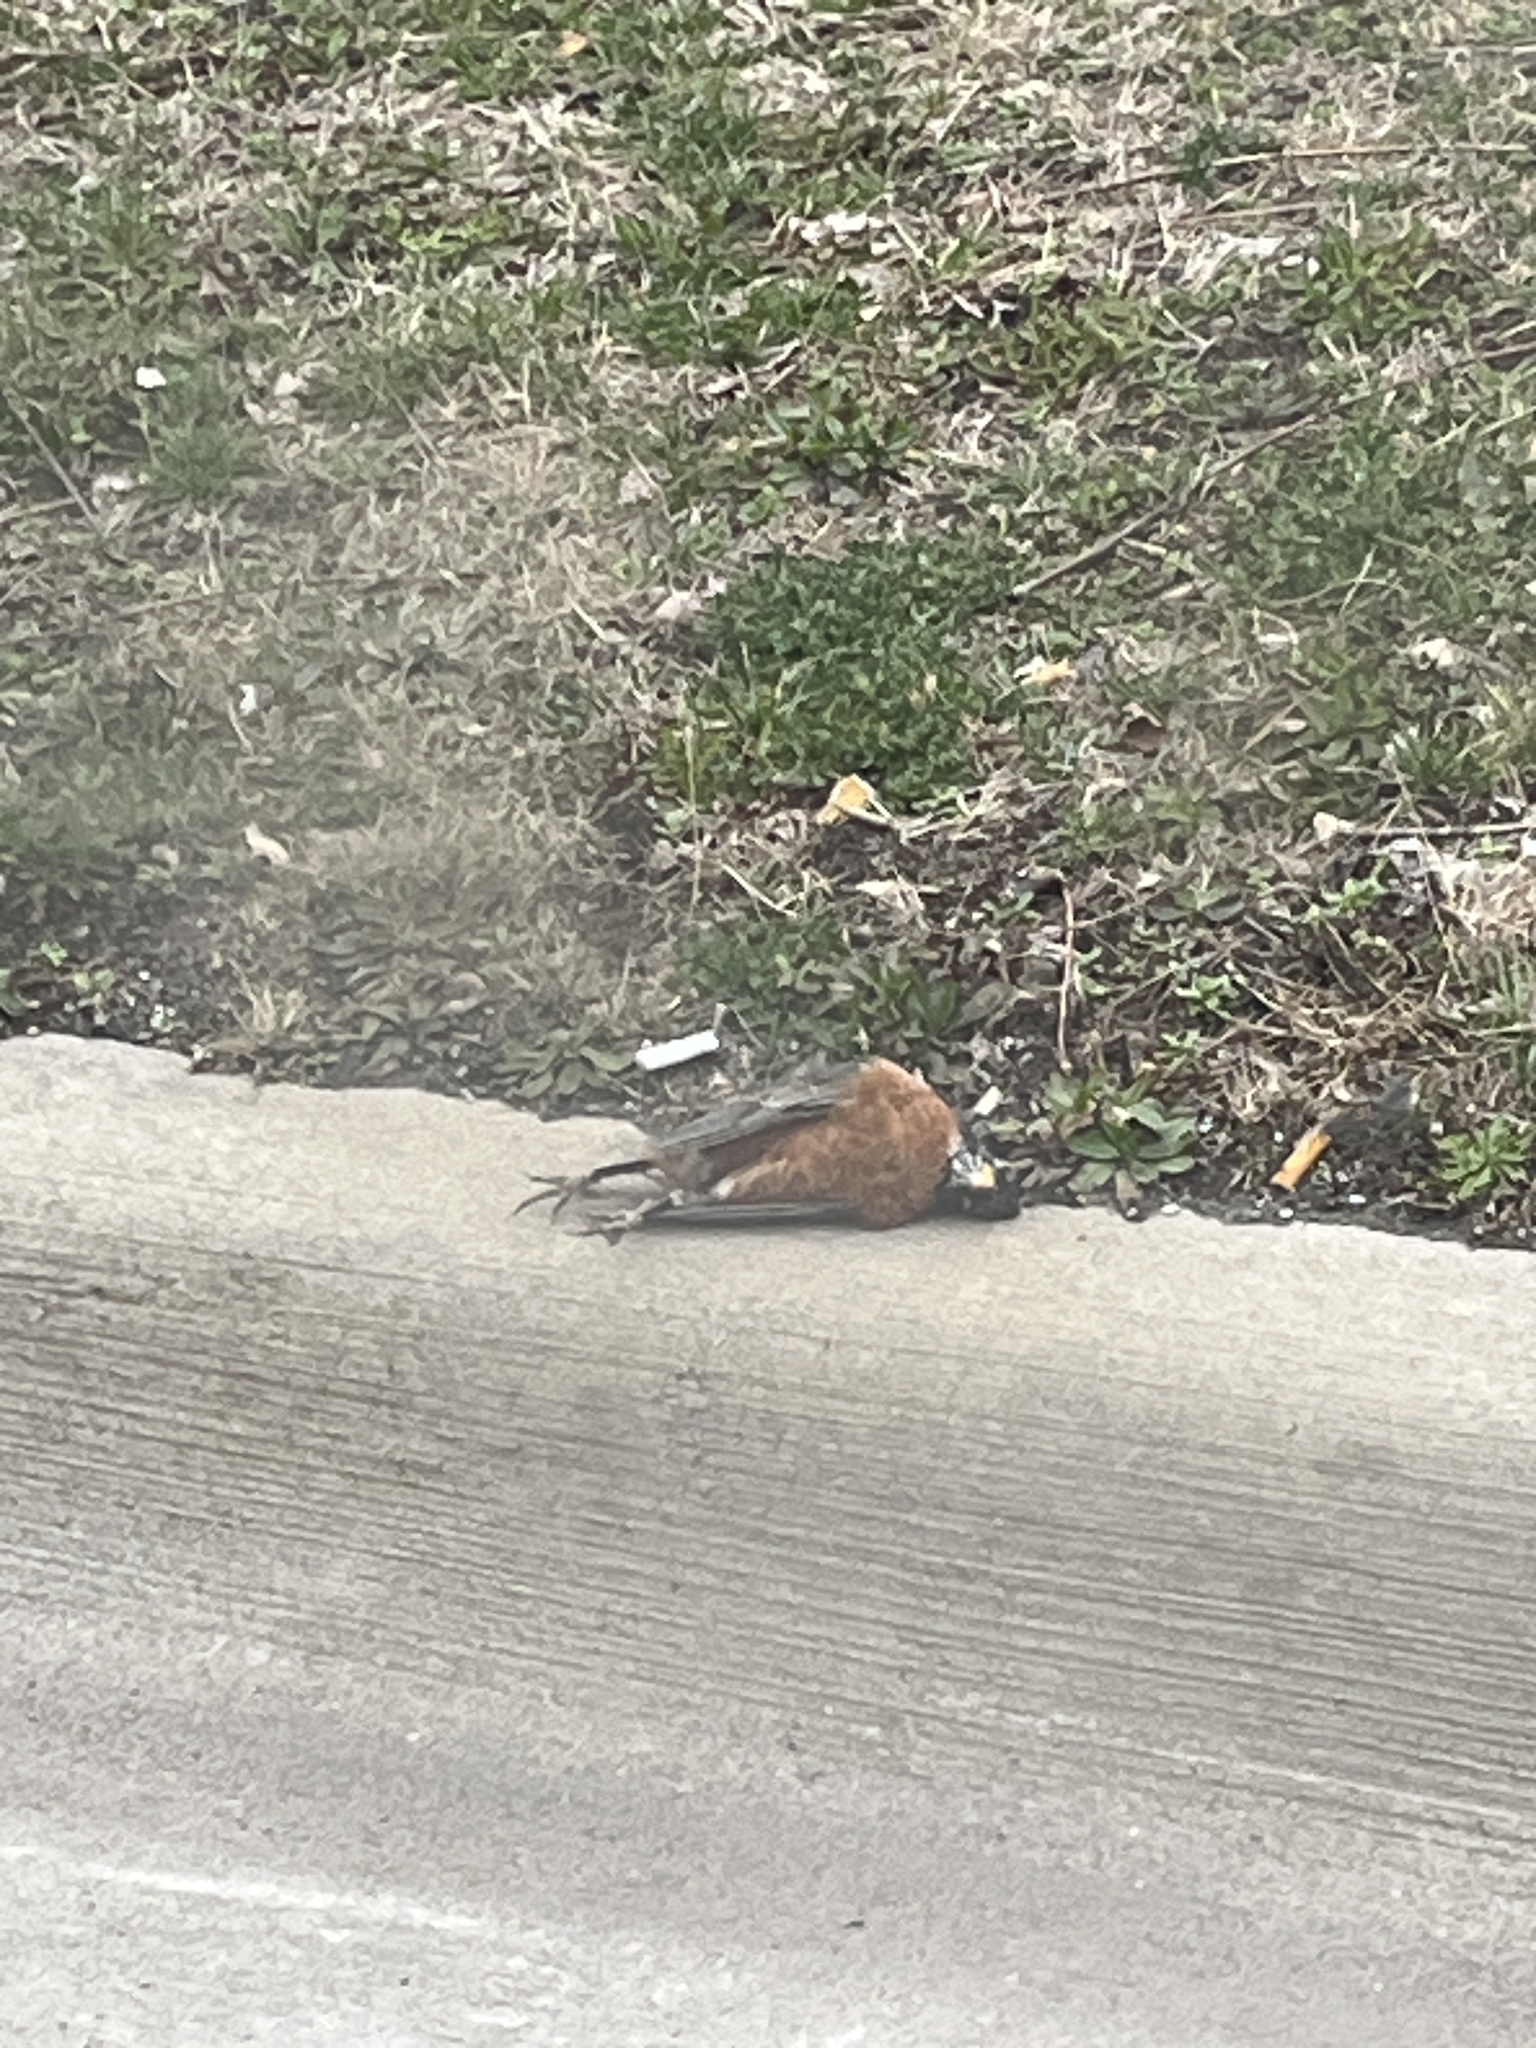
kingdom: Animalia
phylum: Chordata
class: Aves
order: Passeriformes
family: Turdidae
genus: Turdus
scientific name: Turdus migratorius
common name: American robin
